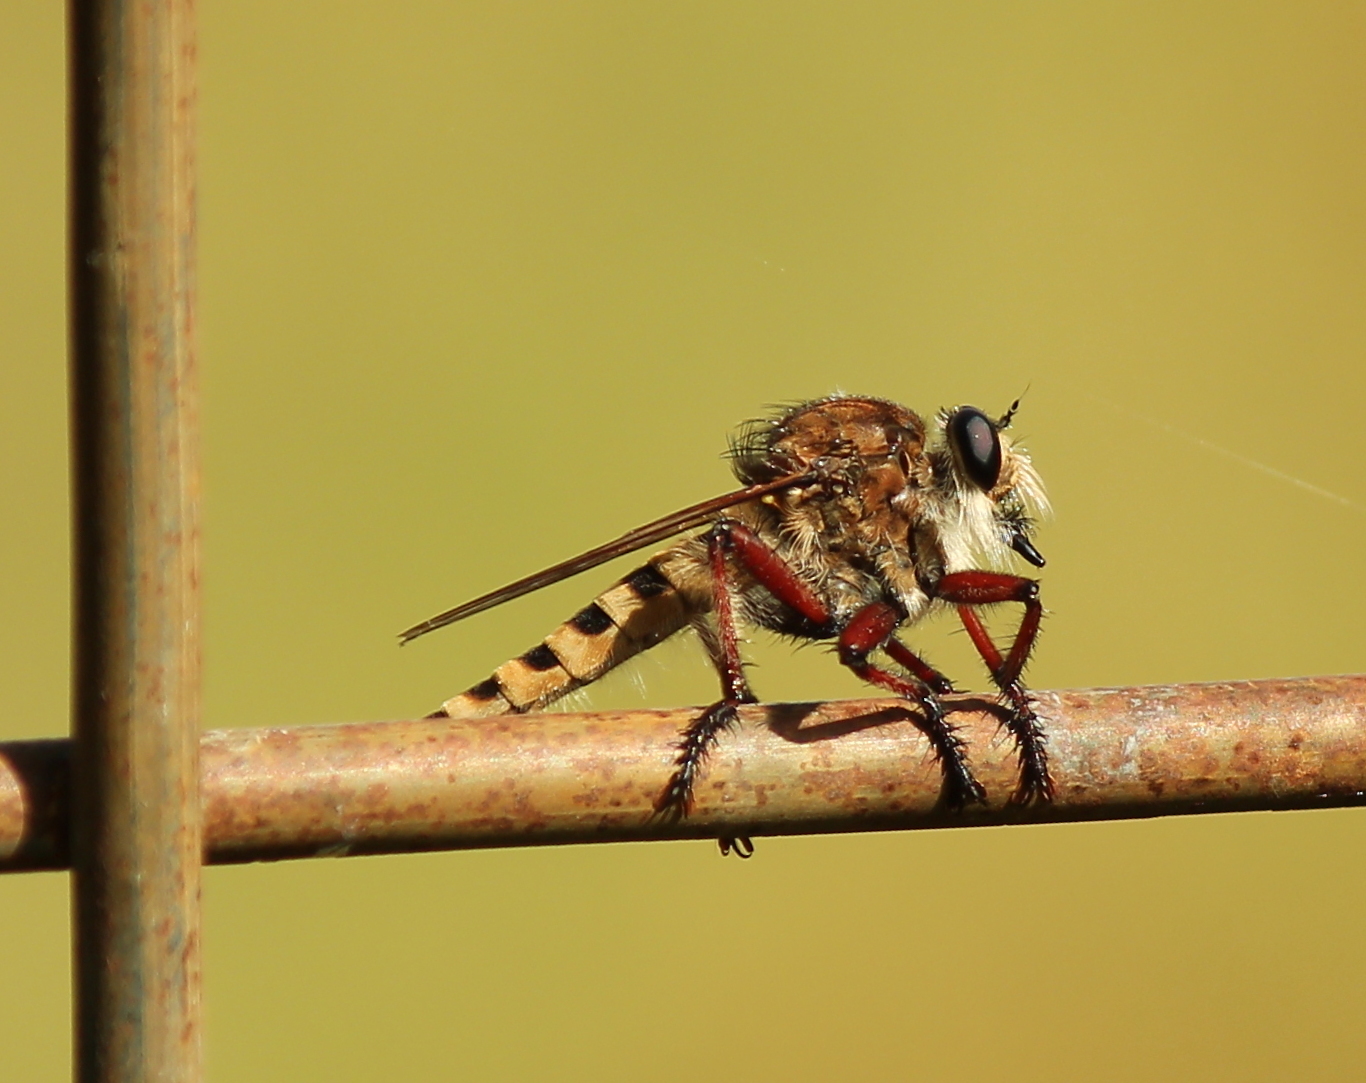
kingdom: Animalia
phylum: Arthropoda
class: Insecta
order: Diptera
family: Asilidae
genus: Promachus
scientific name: Promachus hinei
